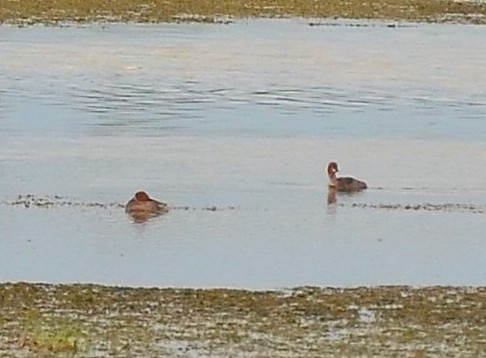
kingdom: Animalia
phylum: Chordata
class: Aves
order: Podicipediformes
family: Podicipedidae
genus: Tachybaptus
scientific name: Tachybaptus ruficollis
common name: Little grebe
